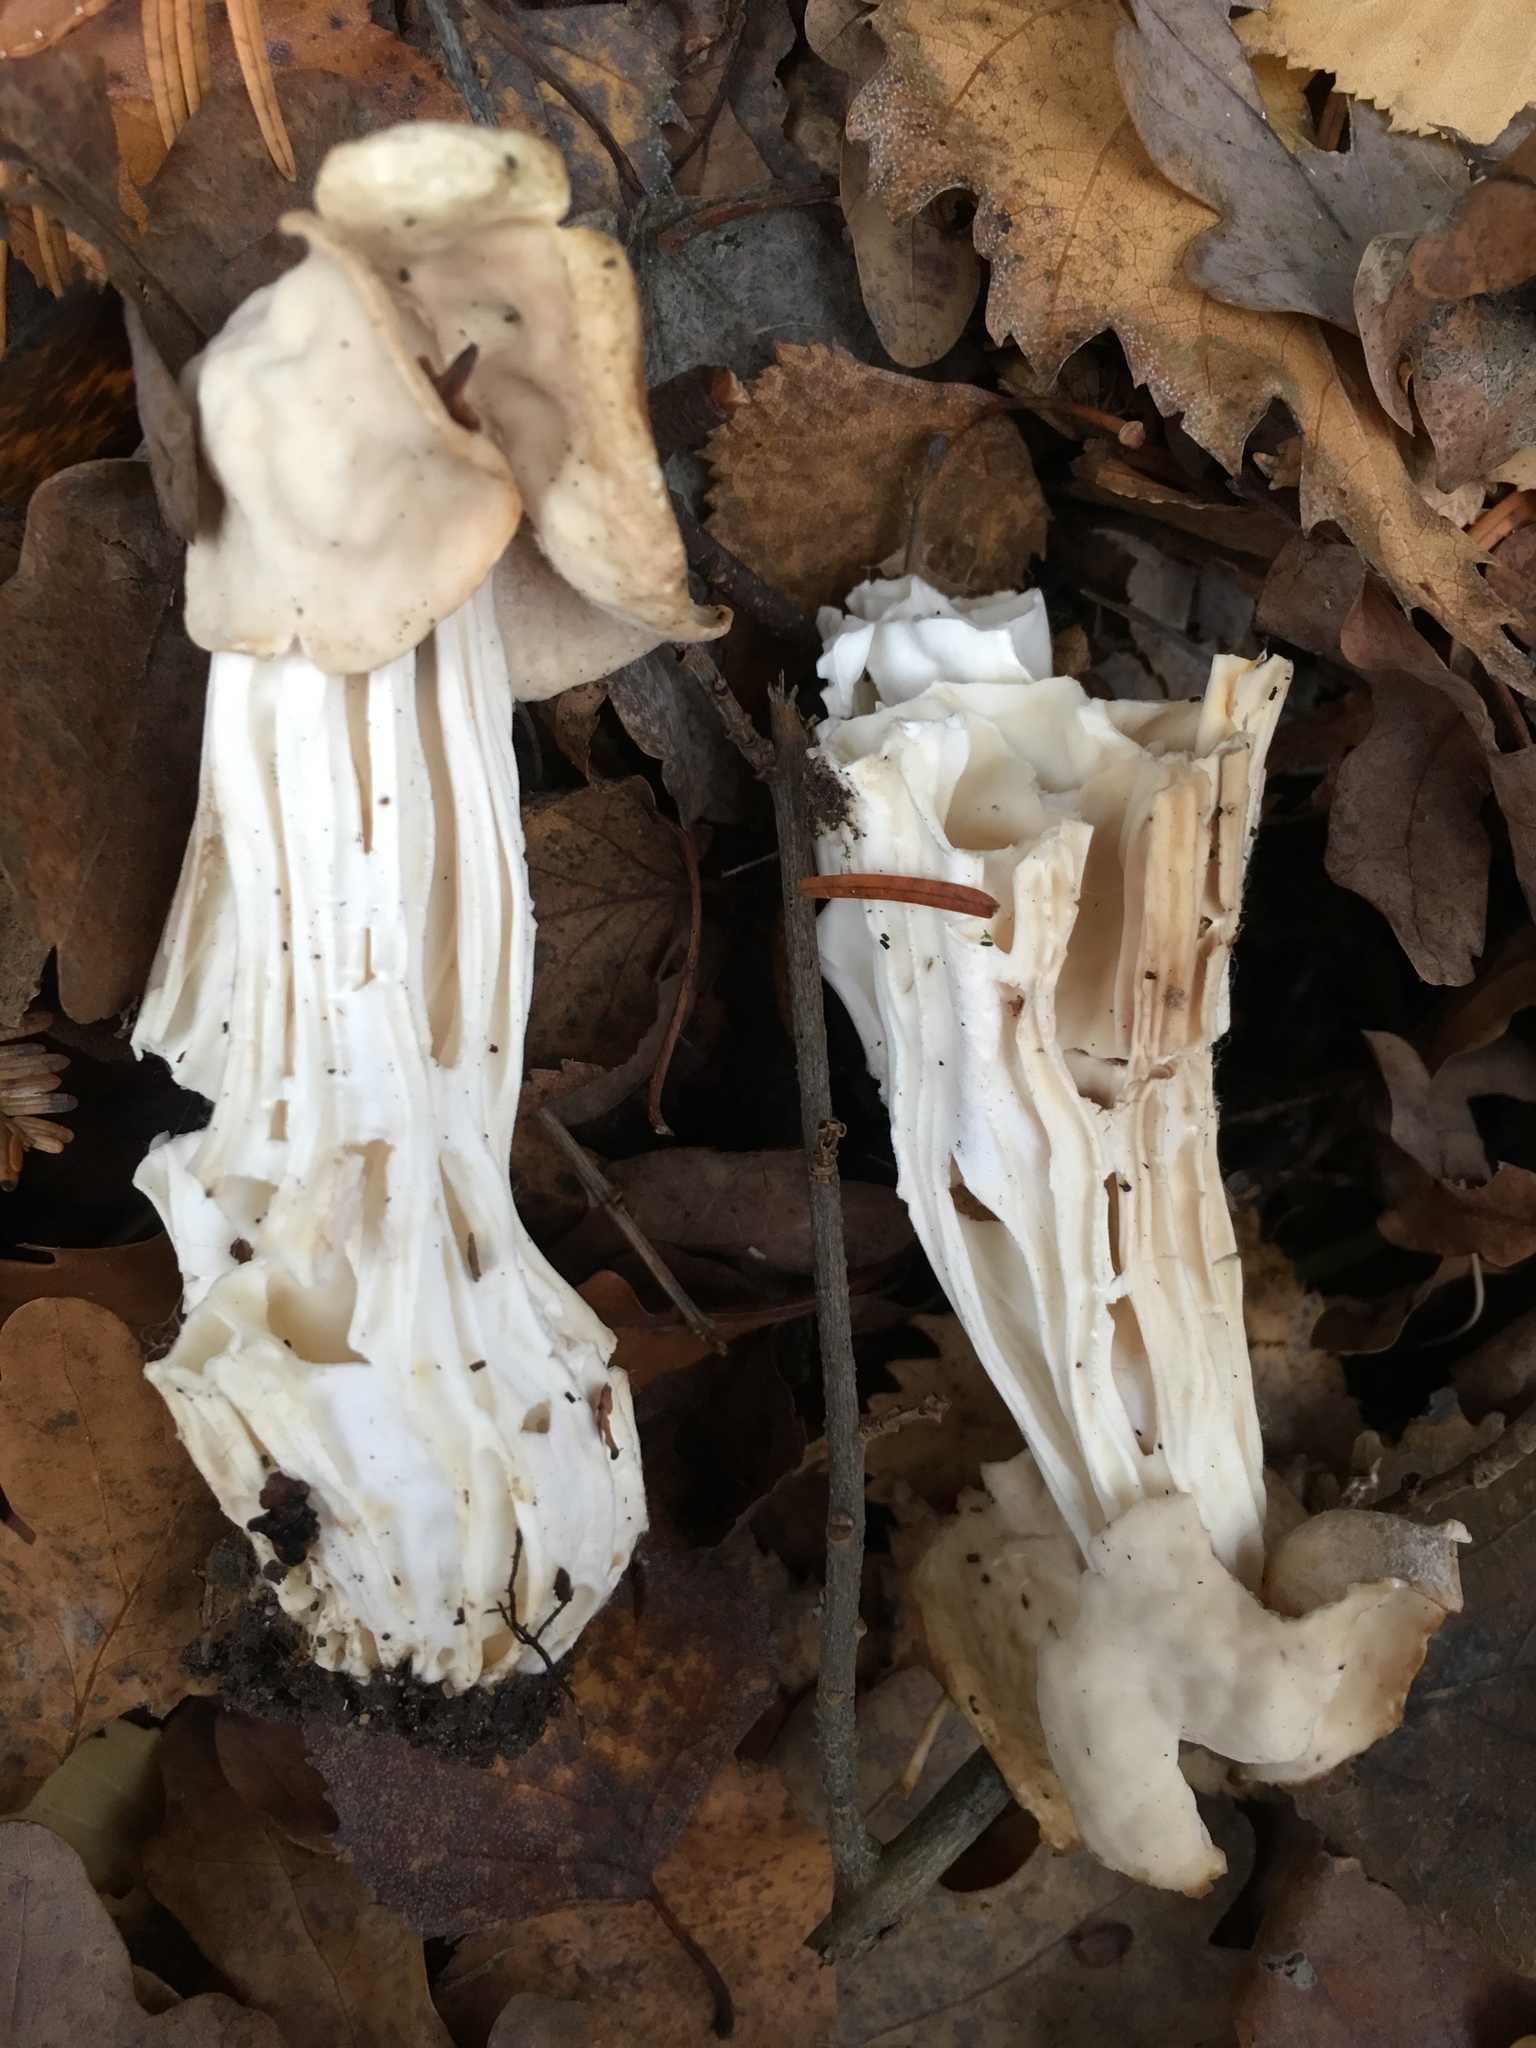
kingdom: Fungi
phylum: Ascomycota
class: Pezizomycetes
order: Pezizales
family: Helvellaceae
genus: Helvella
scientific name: Helvella crispa
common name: White saddle
